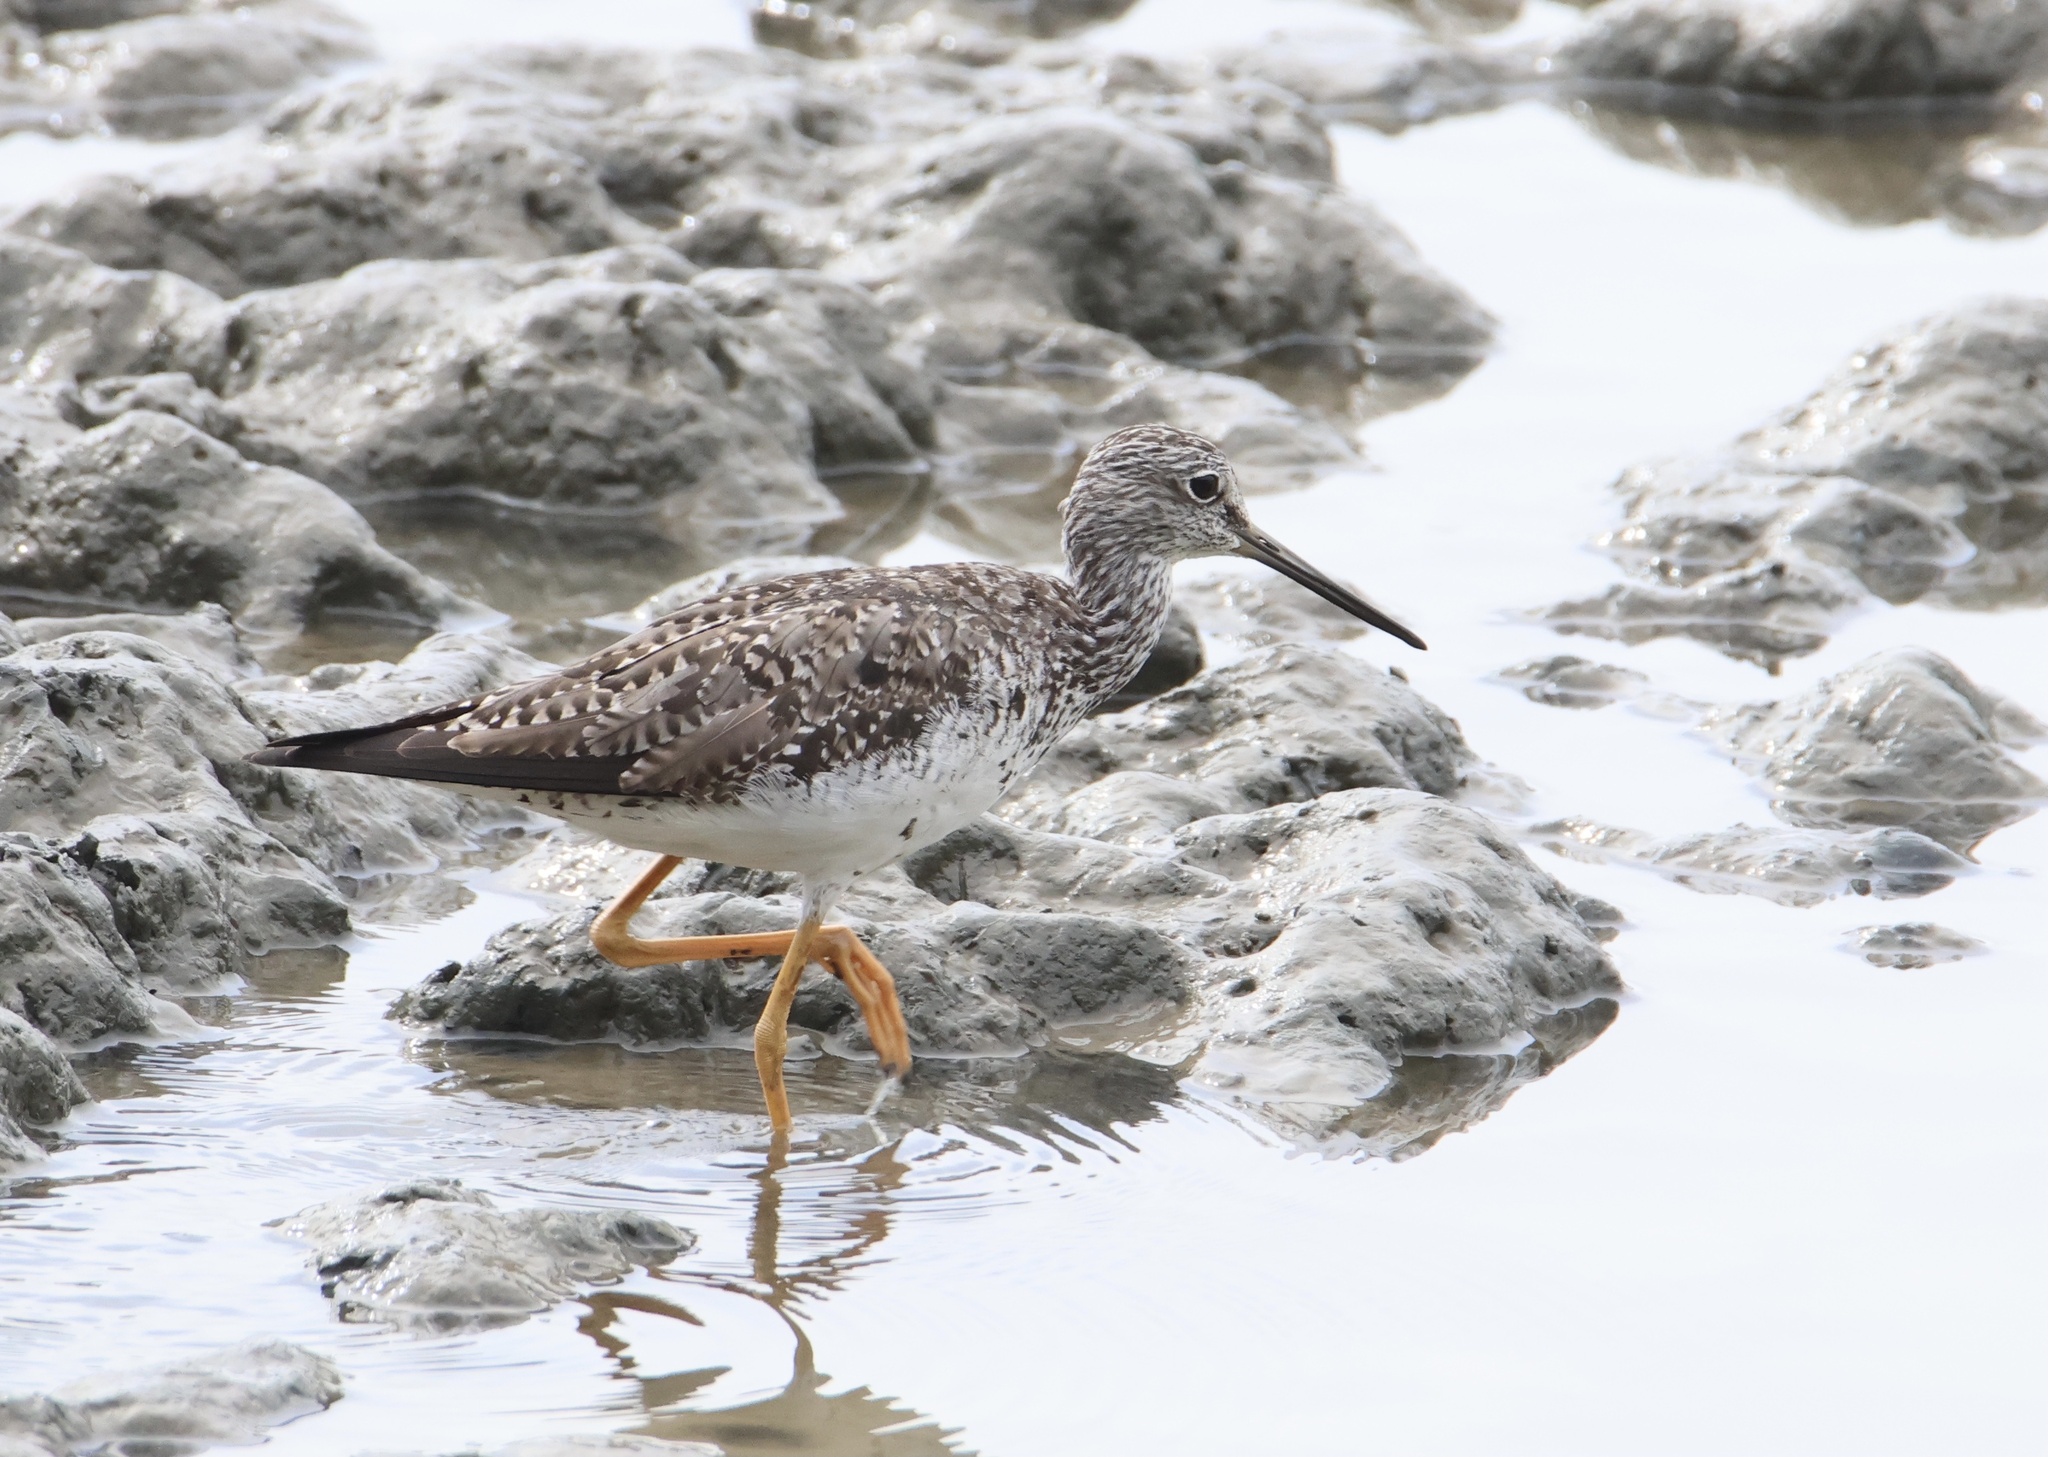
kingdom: Animalia
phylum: Chordata
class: Aves
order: Charadriiformes
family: Scolopacidae
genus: Tringa
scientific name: Tringa melanoleuca
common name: Greater yellowlegs
